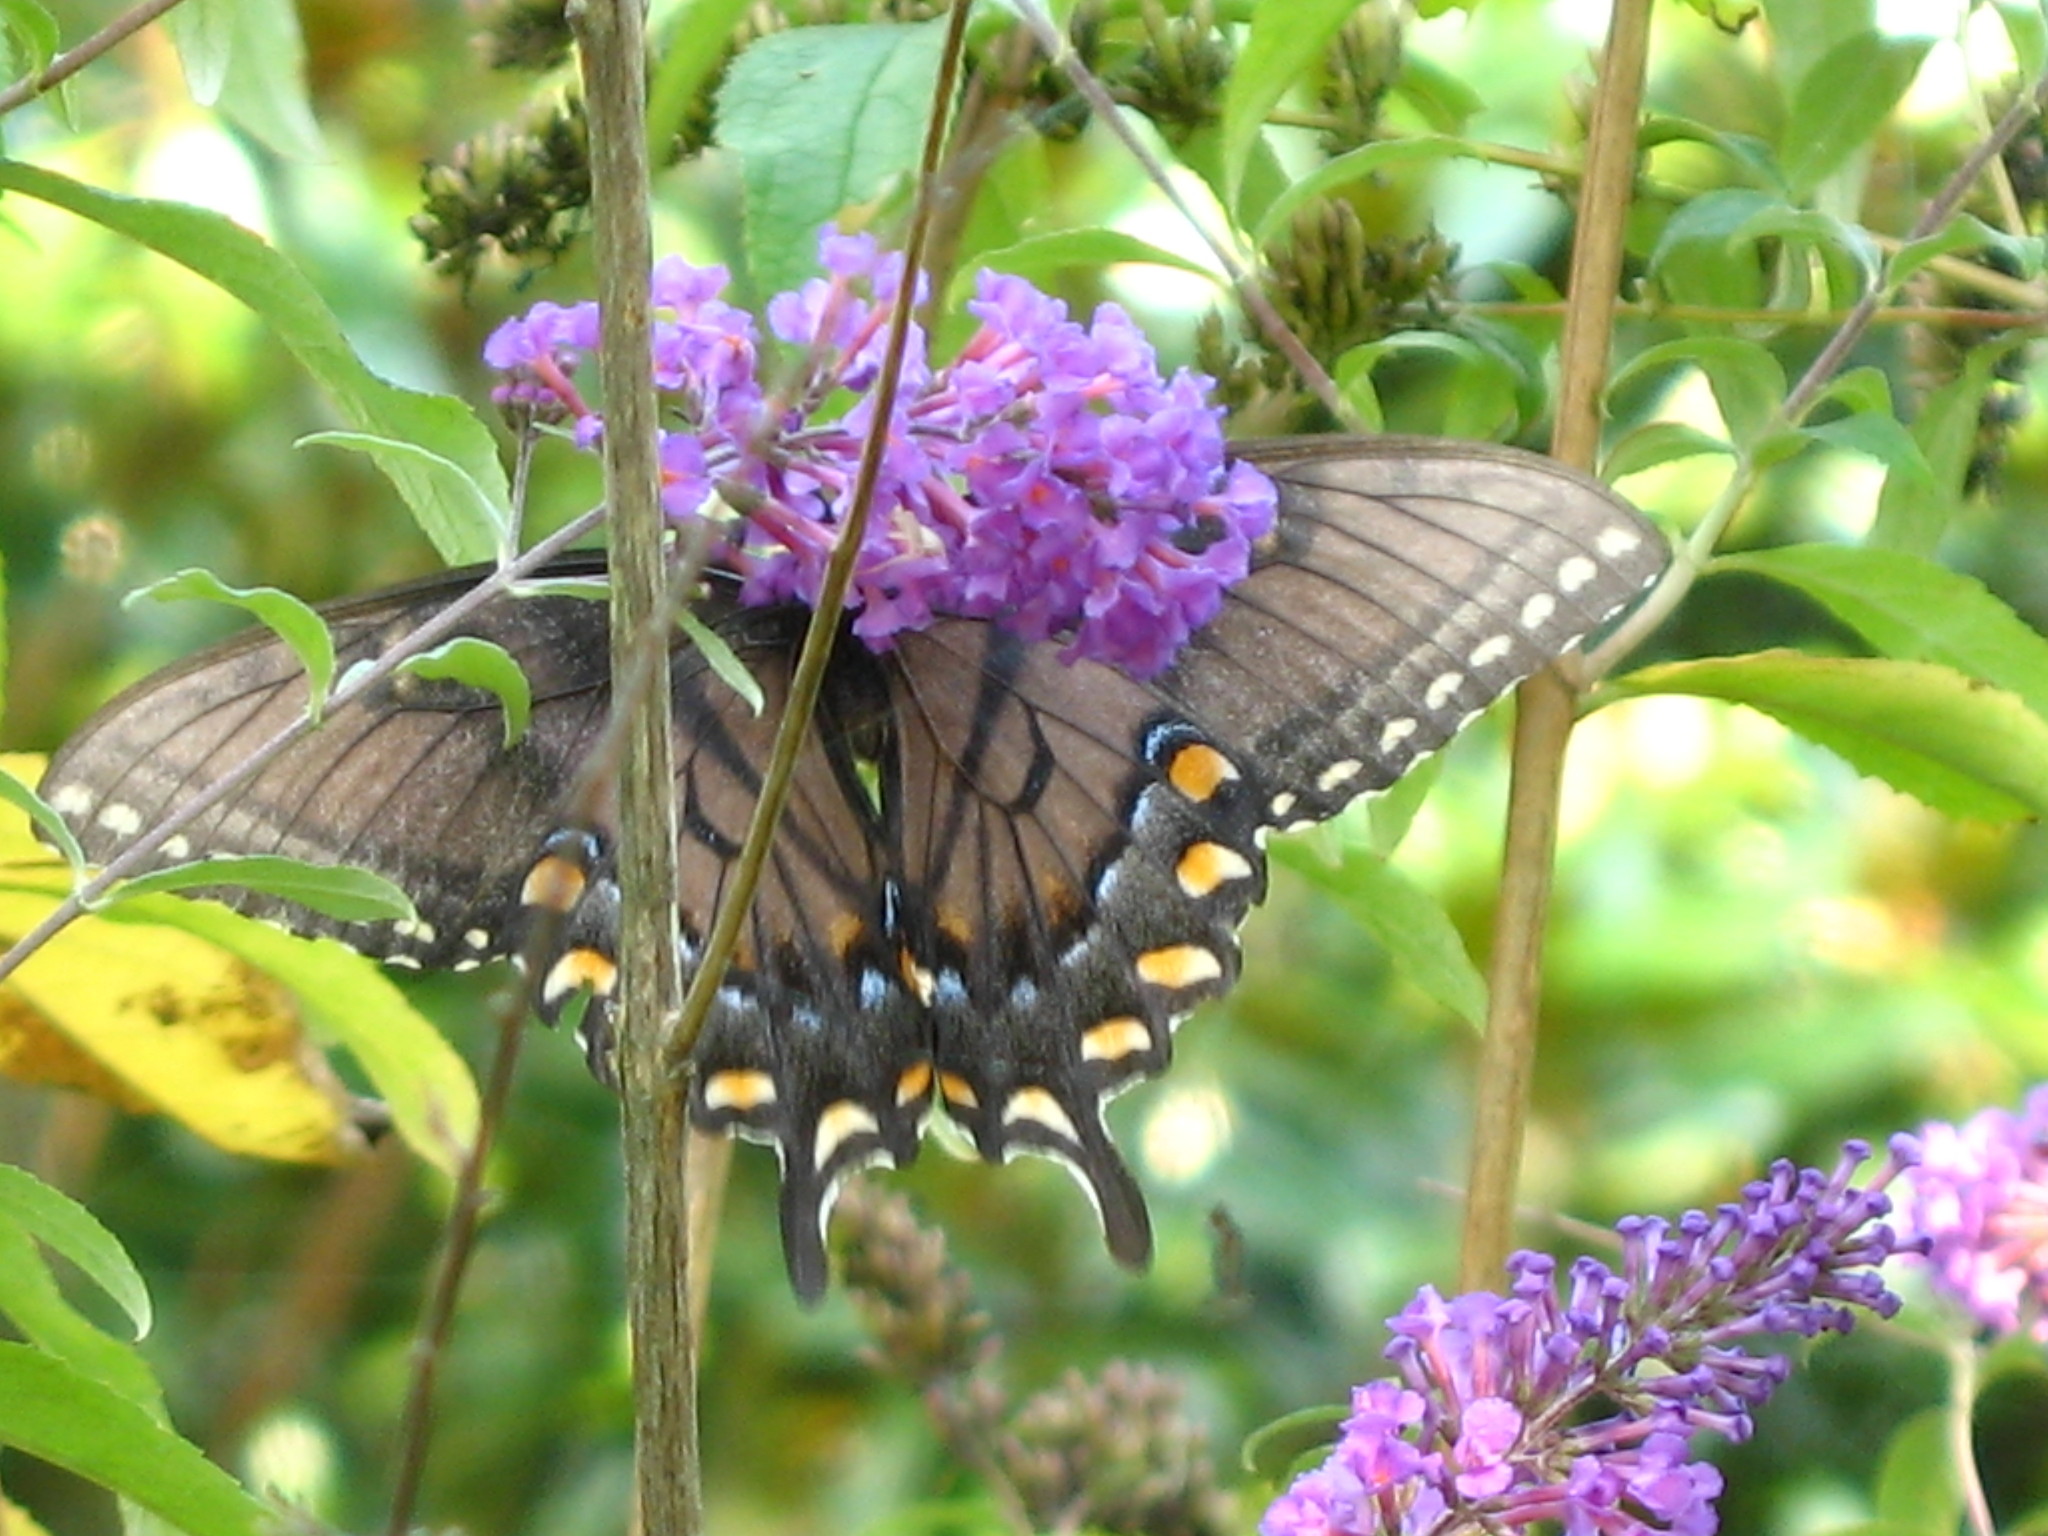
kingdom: Animalia
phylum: Arthropoda
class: Insecta
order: Lepidoptera
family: Papilionidae
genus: Papilio
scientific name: Papilio glaucus
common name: Tiger swallowtail
